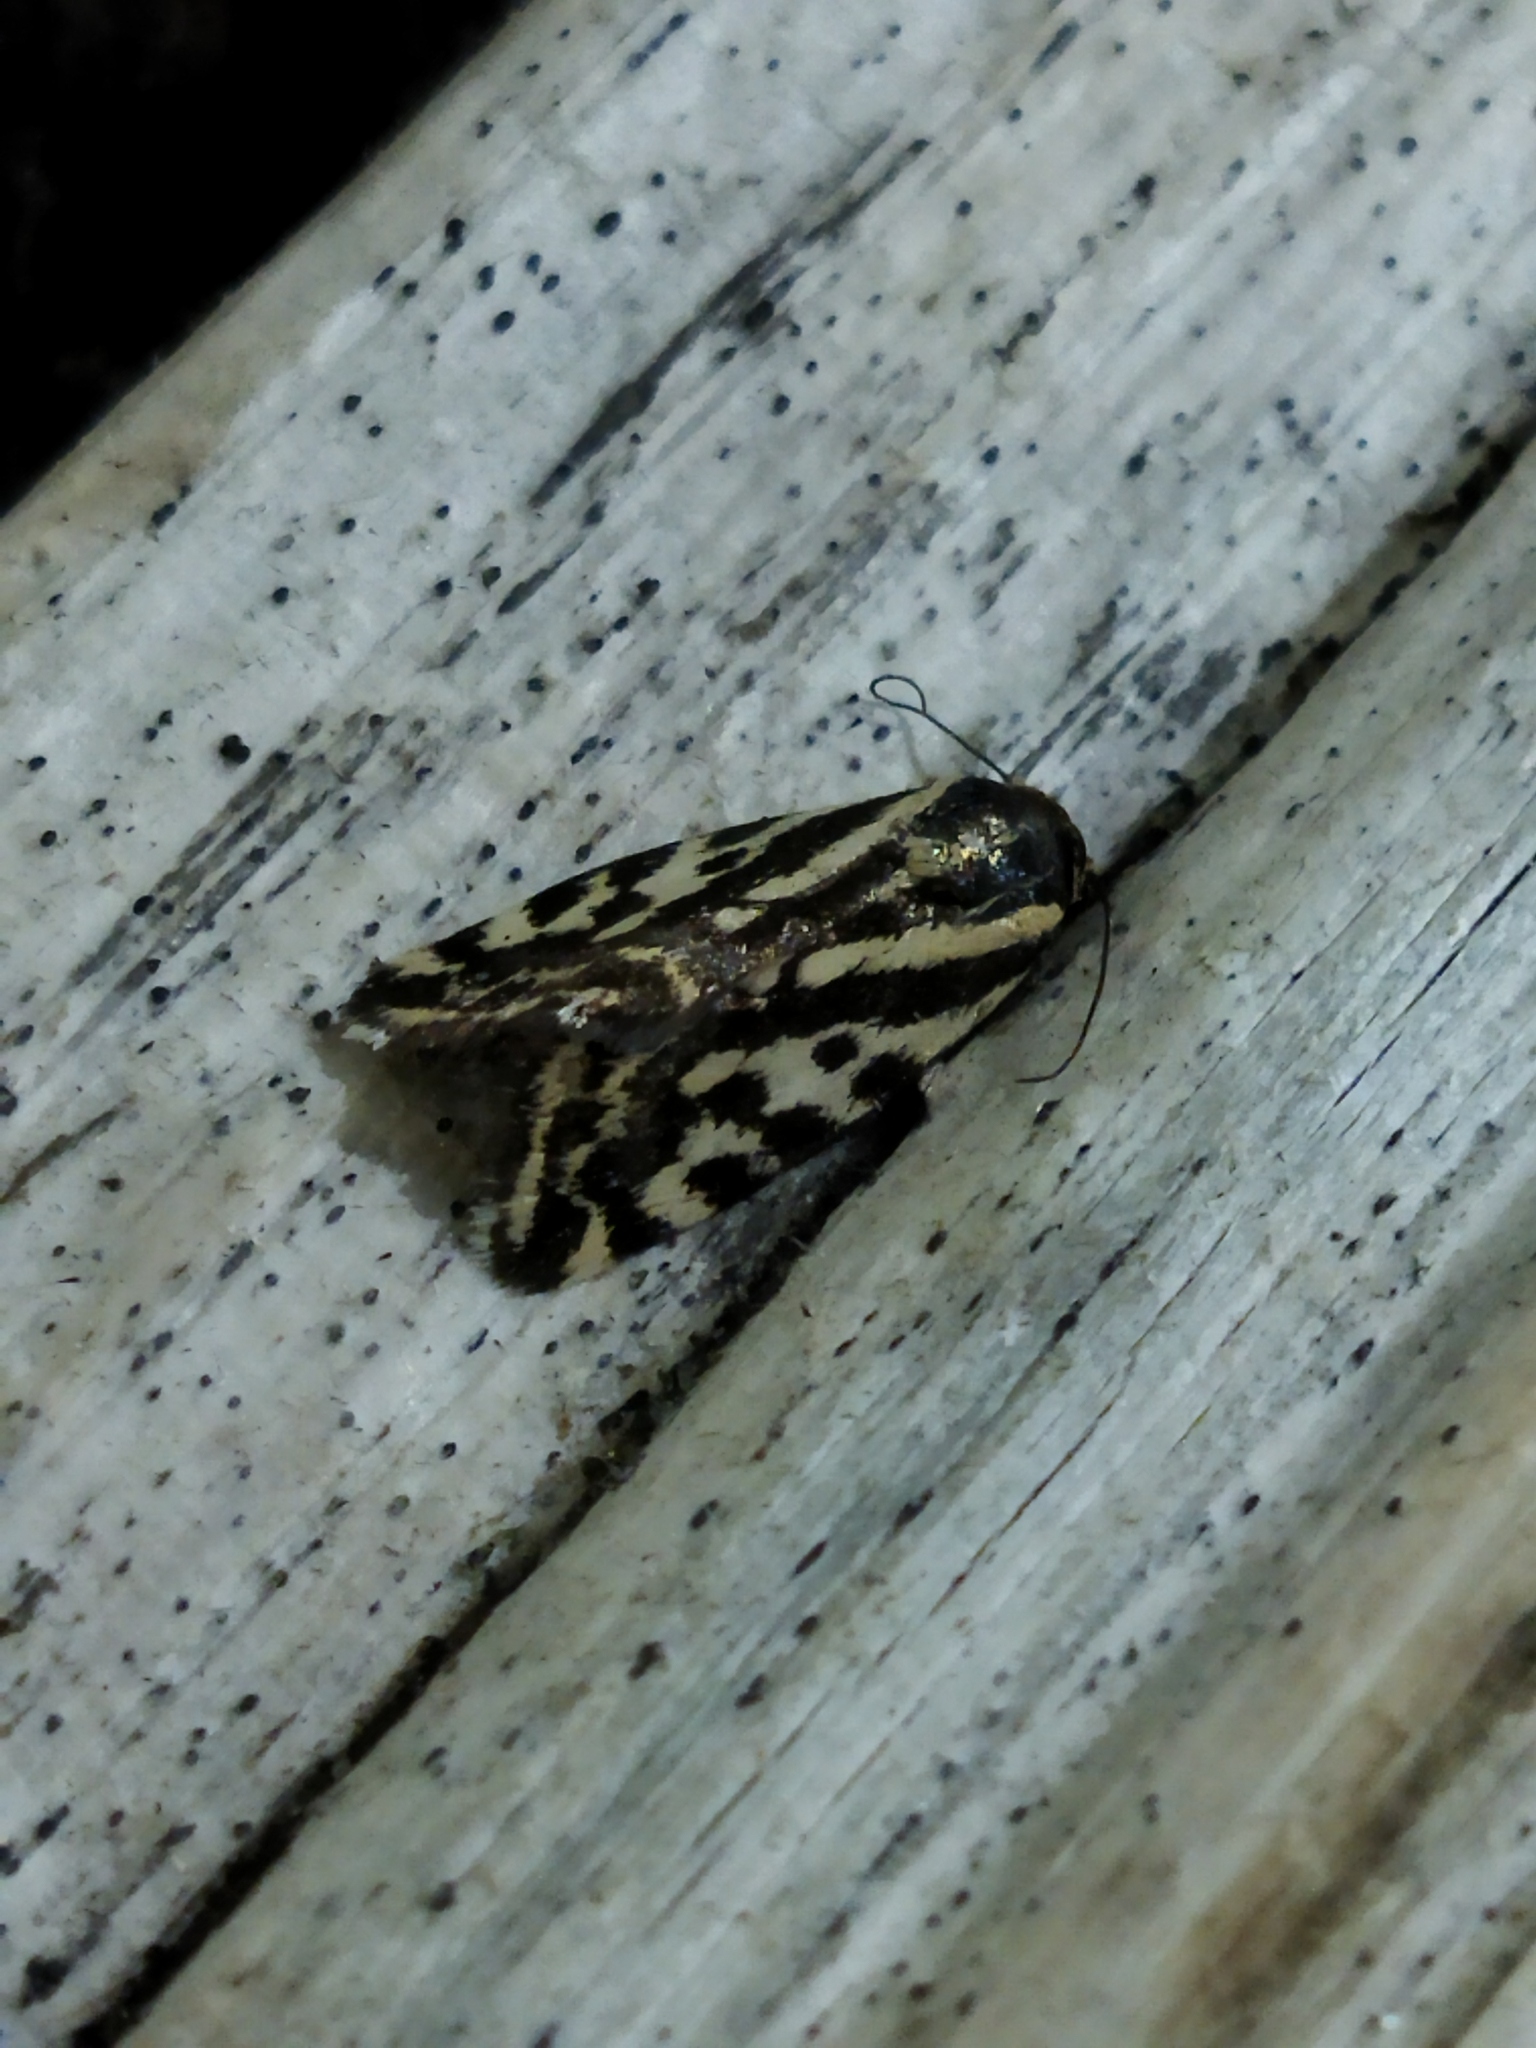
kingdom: Animalia
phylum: Arthropoda
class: Insecta
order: Lepidoptera
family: Noctuidae
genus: Acontia
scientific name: Acontia trabealis
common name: Spotted sulphur
